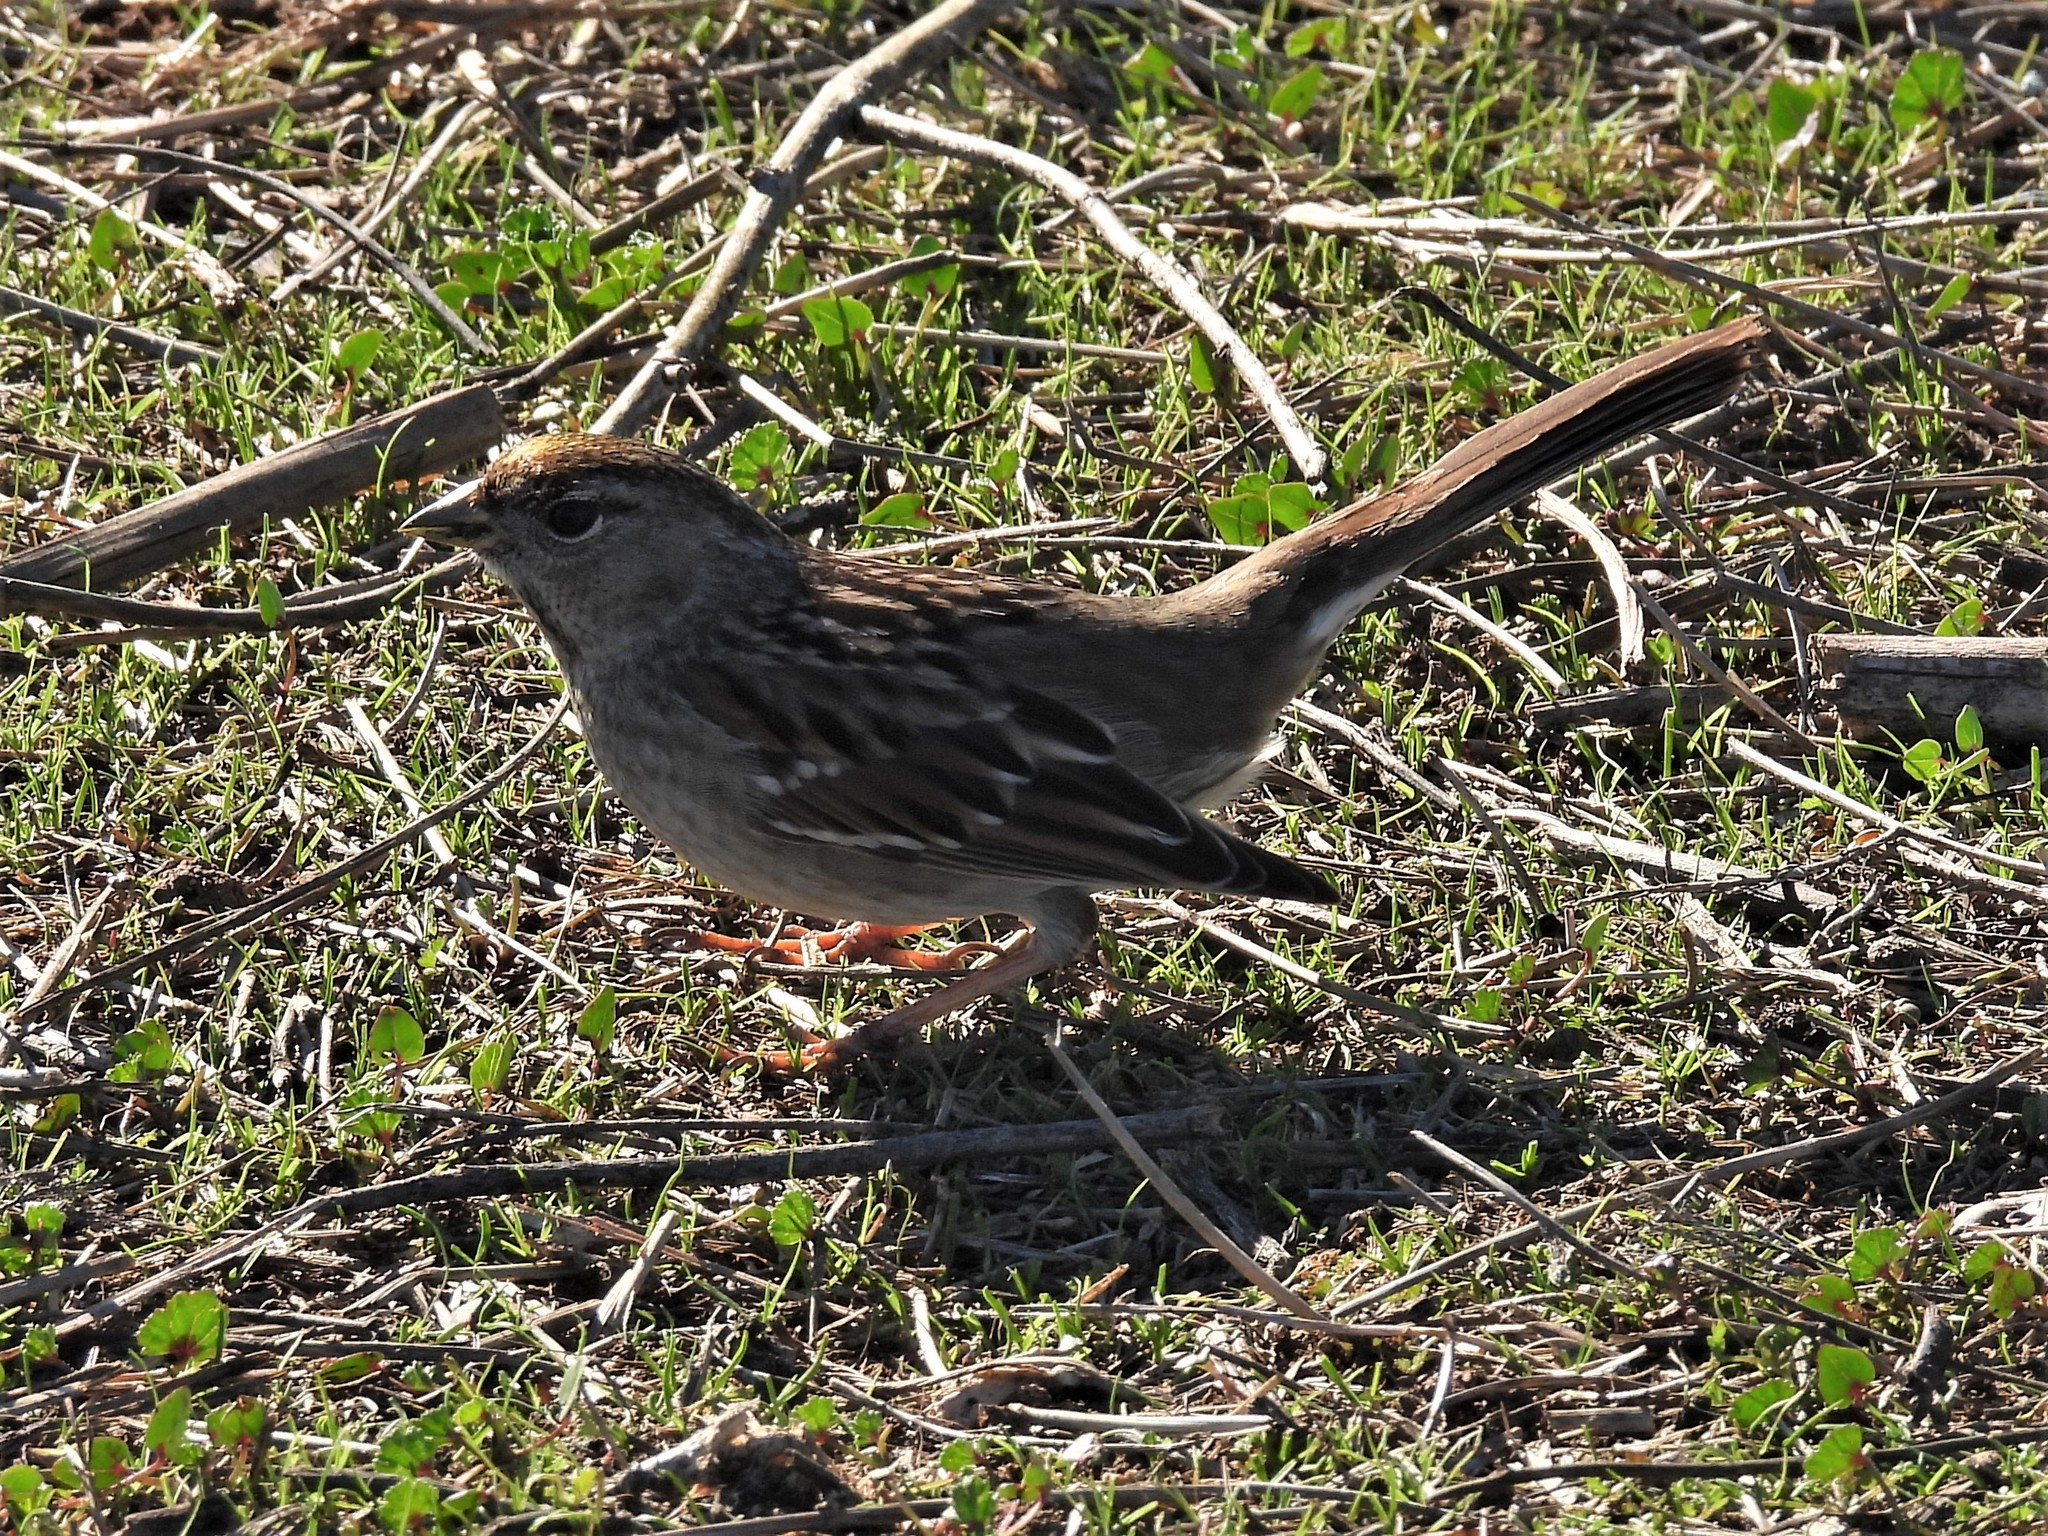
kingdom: Animalia
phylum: Chordata
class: Aves
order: Passeriformes
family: Passerellidae
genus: Zonotrichia
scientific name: Zonotrichia atricapilla
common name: Golden-crowned sparrow
